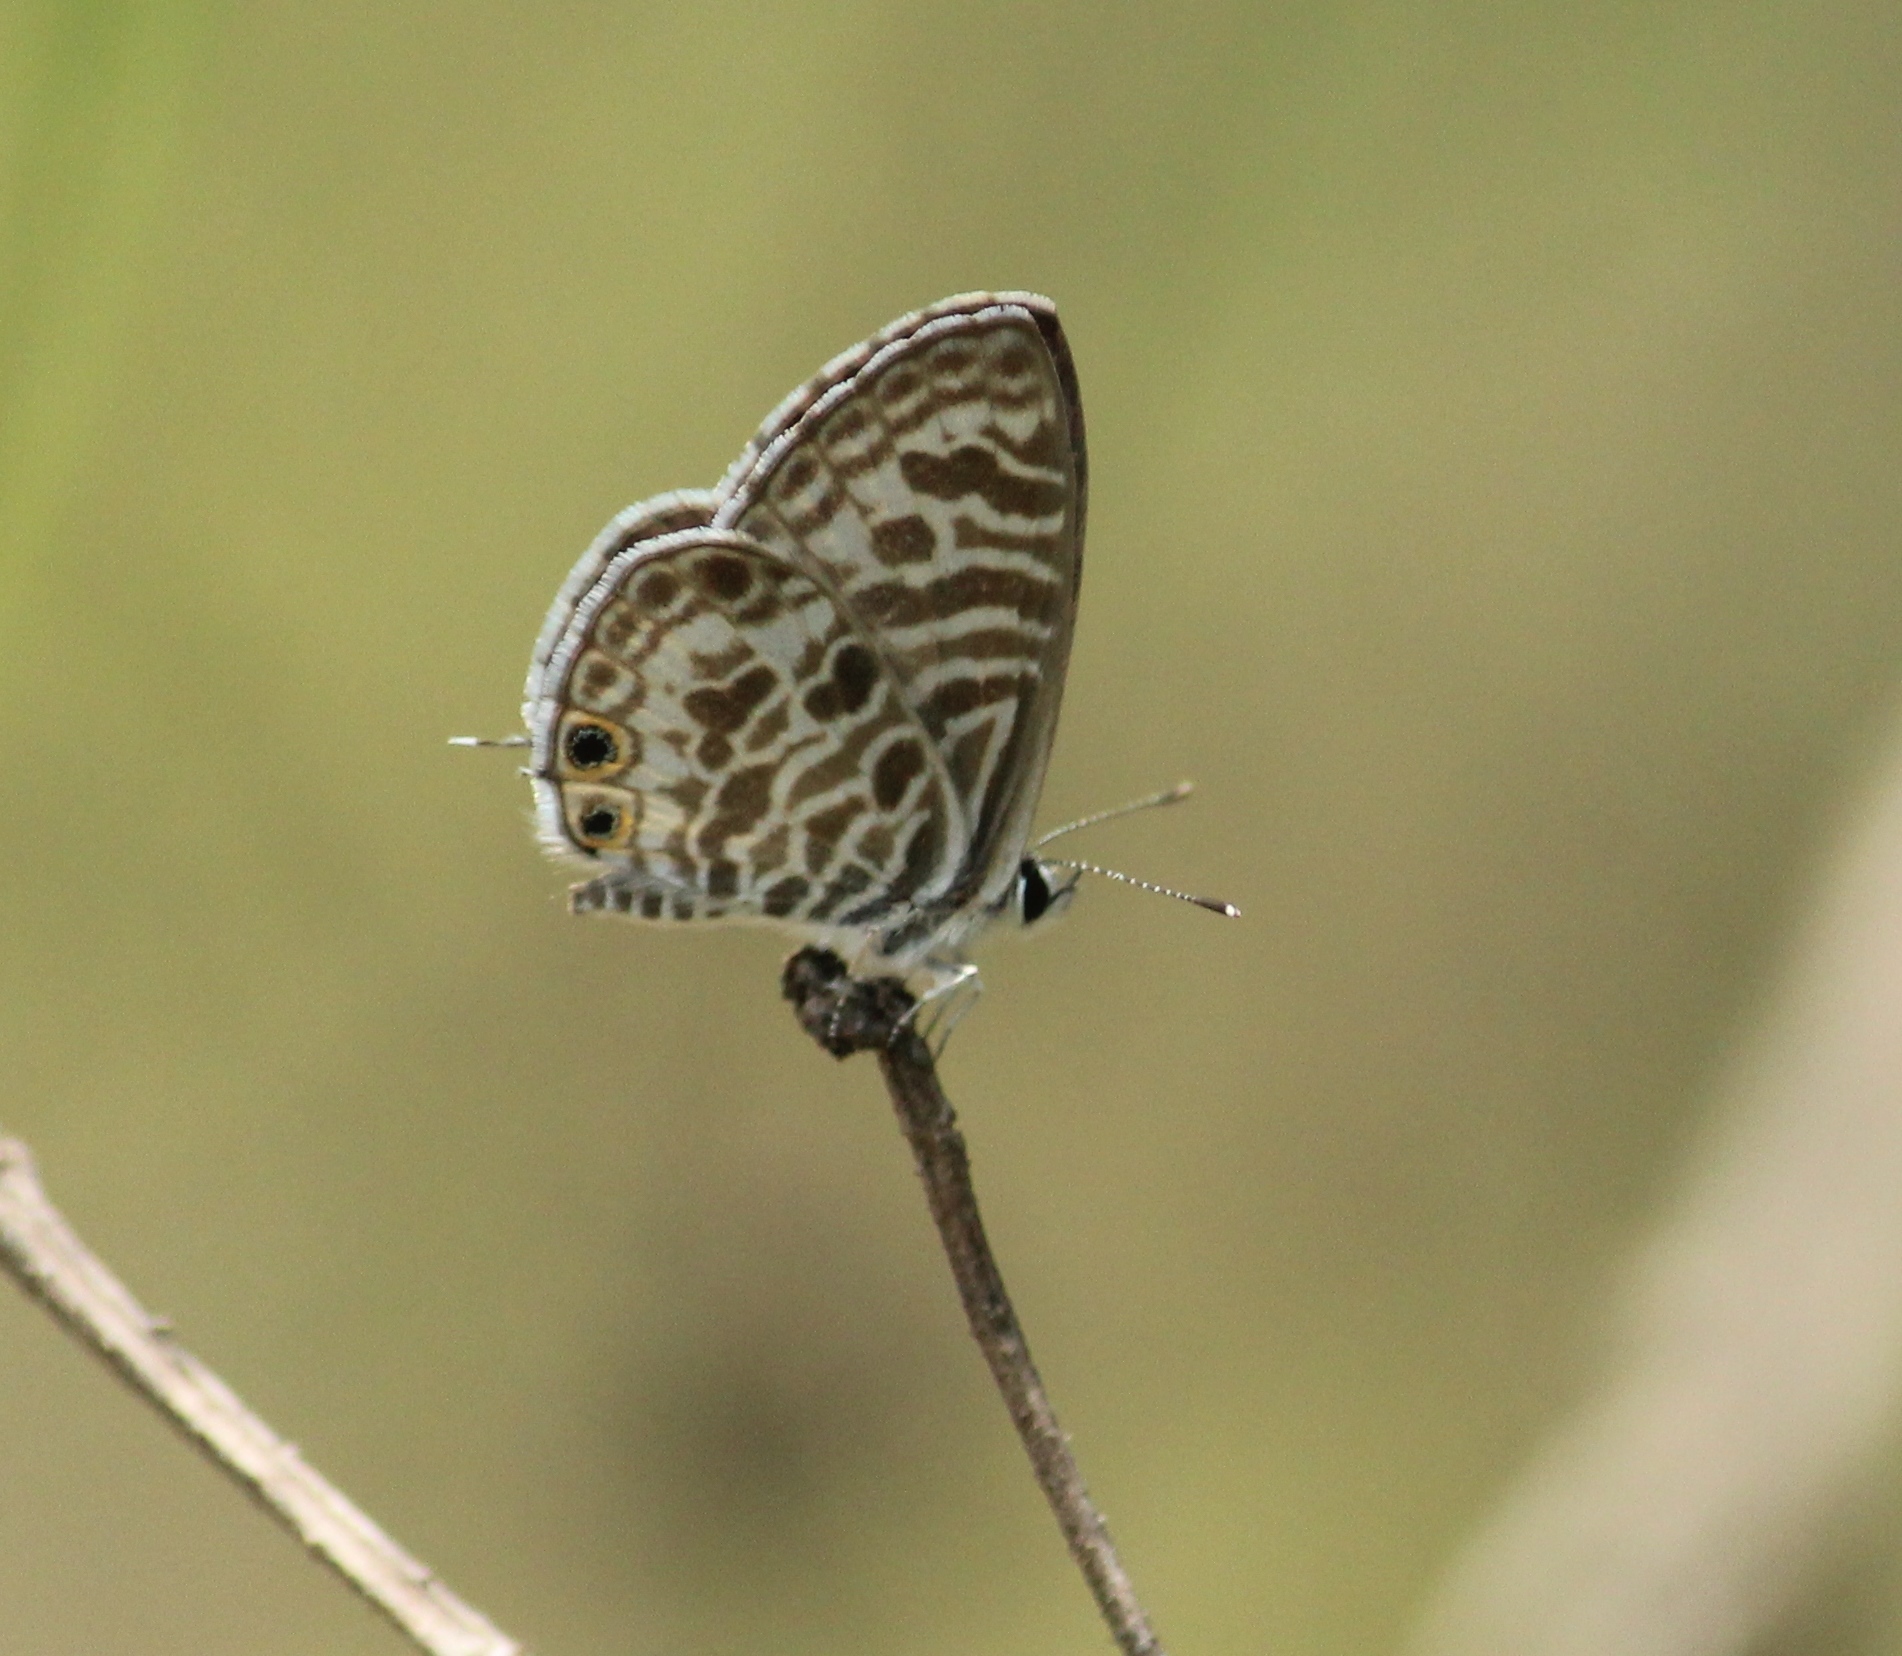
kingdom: Animalia
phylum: Arthropoda
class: Insecta
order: Lepidoptera
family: Lycaenidae
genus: Leptotes
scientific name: Leptotes plinius
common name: Zebra blue
